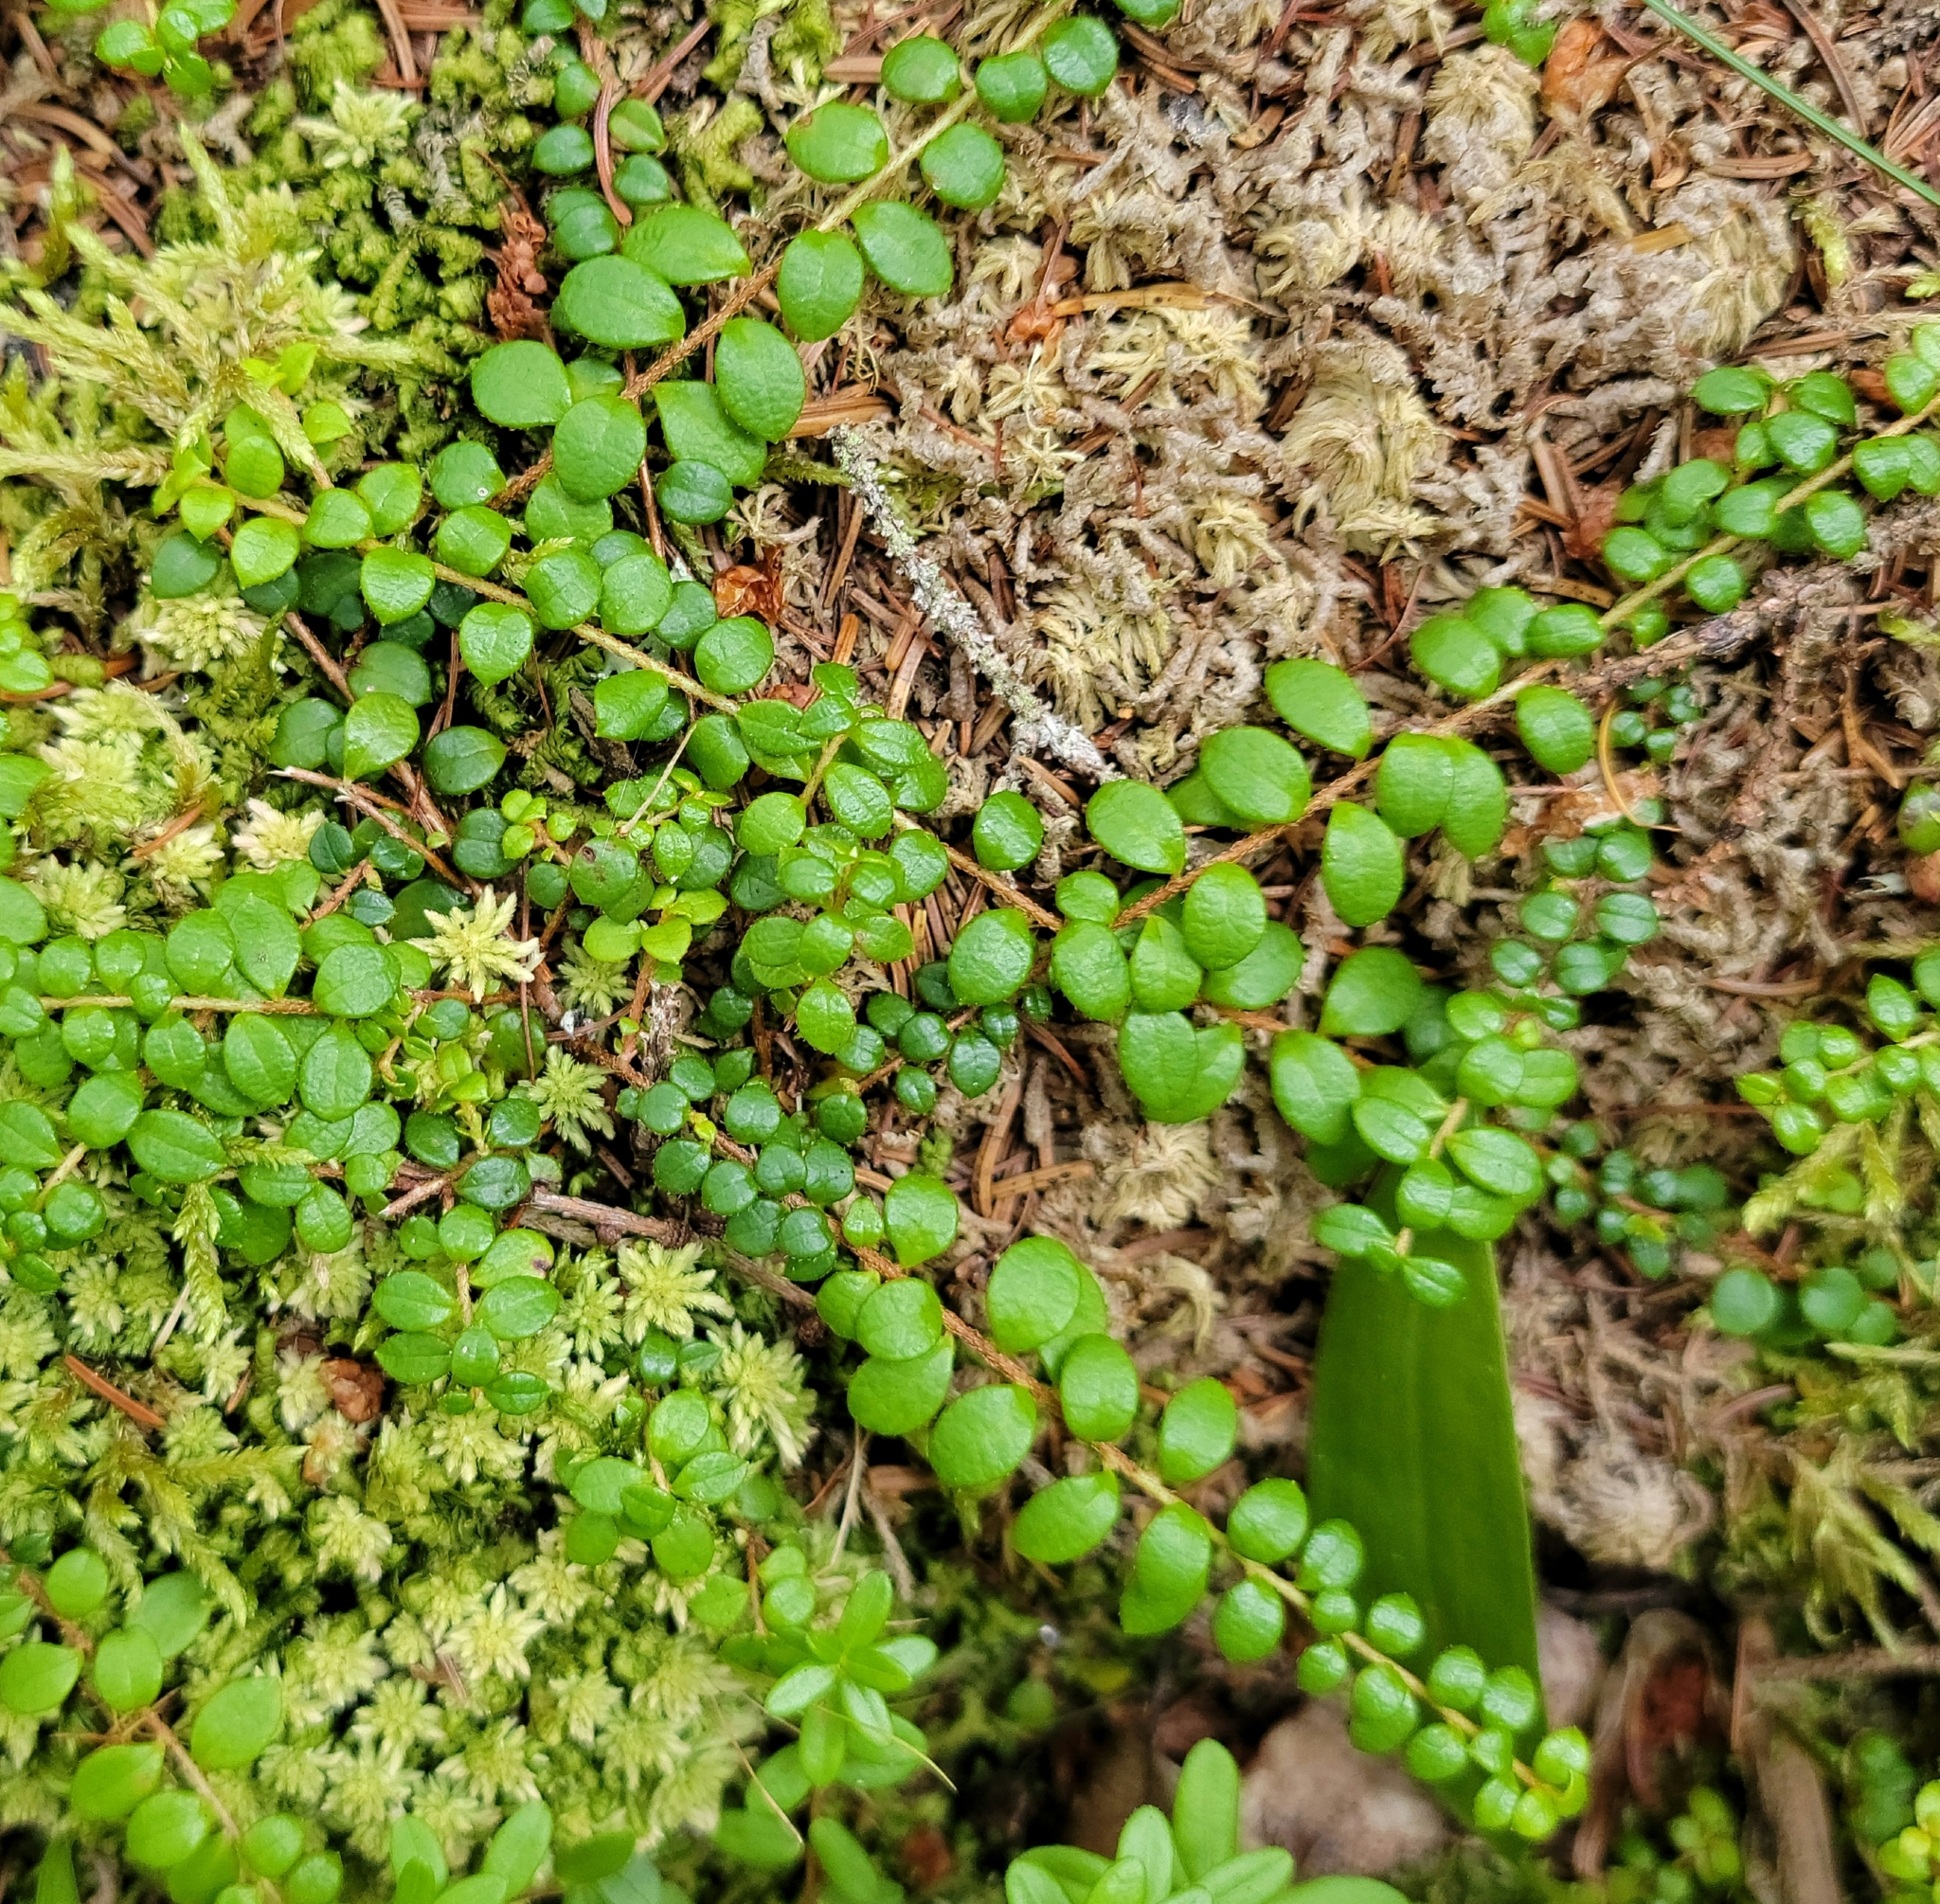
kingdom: Plantae
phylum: Tracheophyta
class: Magnoliopsida
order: Ericales
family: Ericaceae
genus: Gaultheria
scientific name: Gaultheria hispidula
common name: Cancer wintergreen
